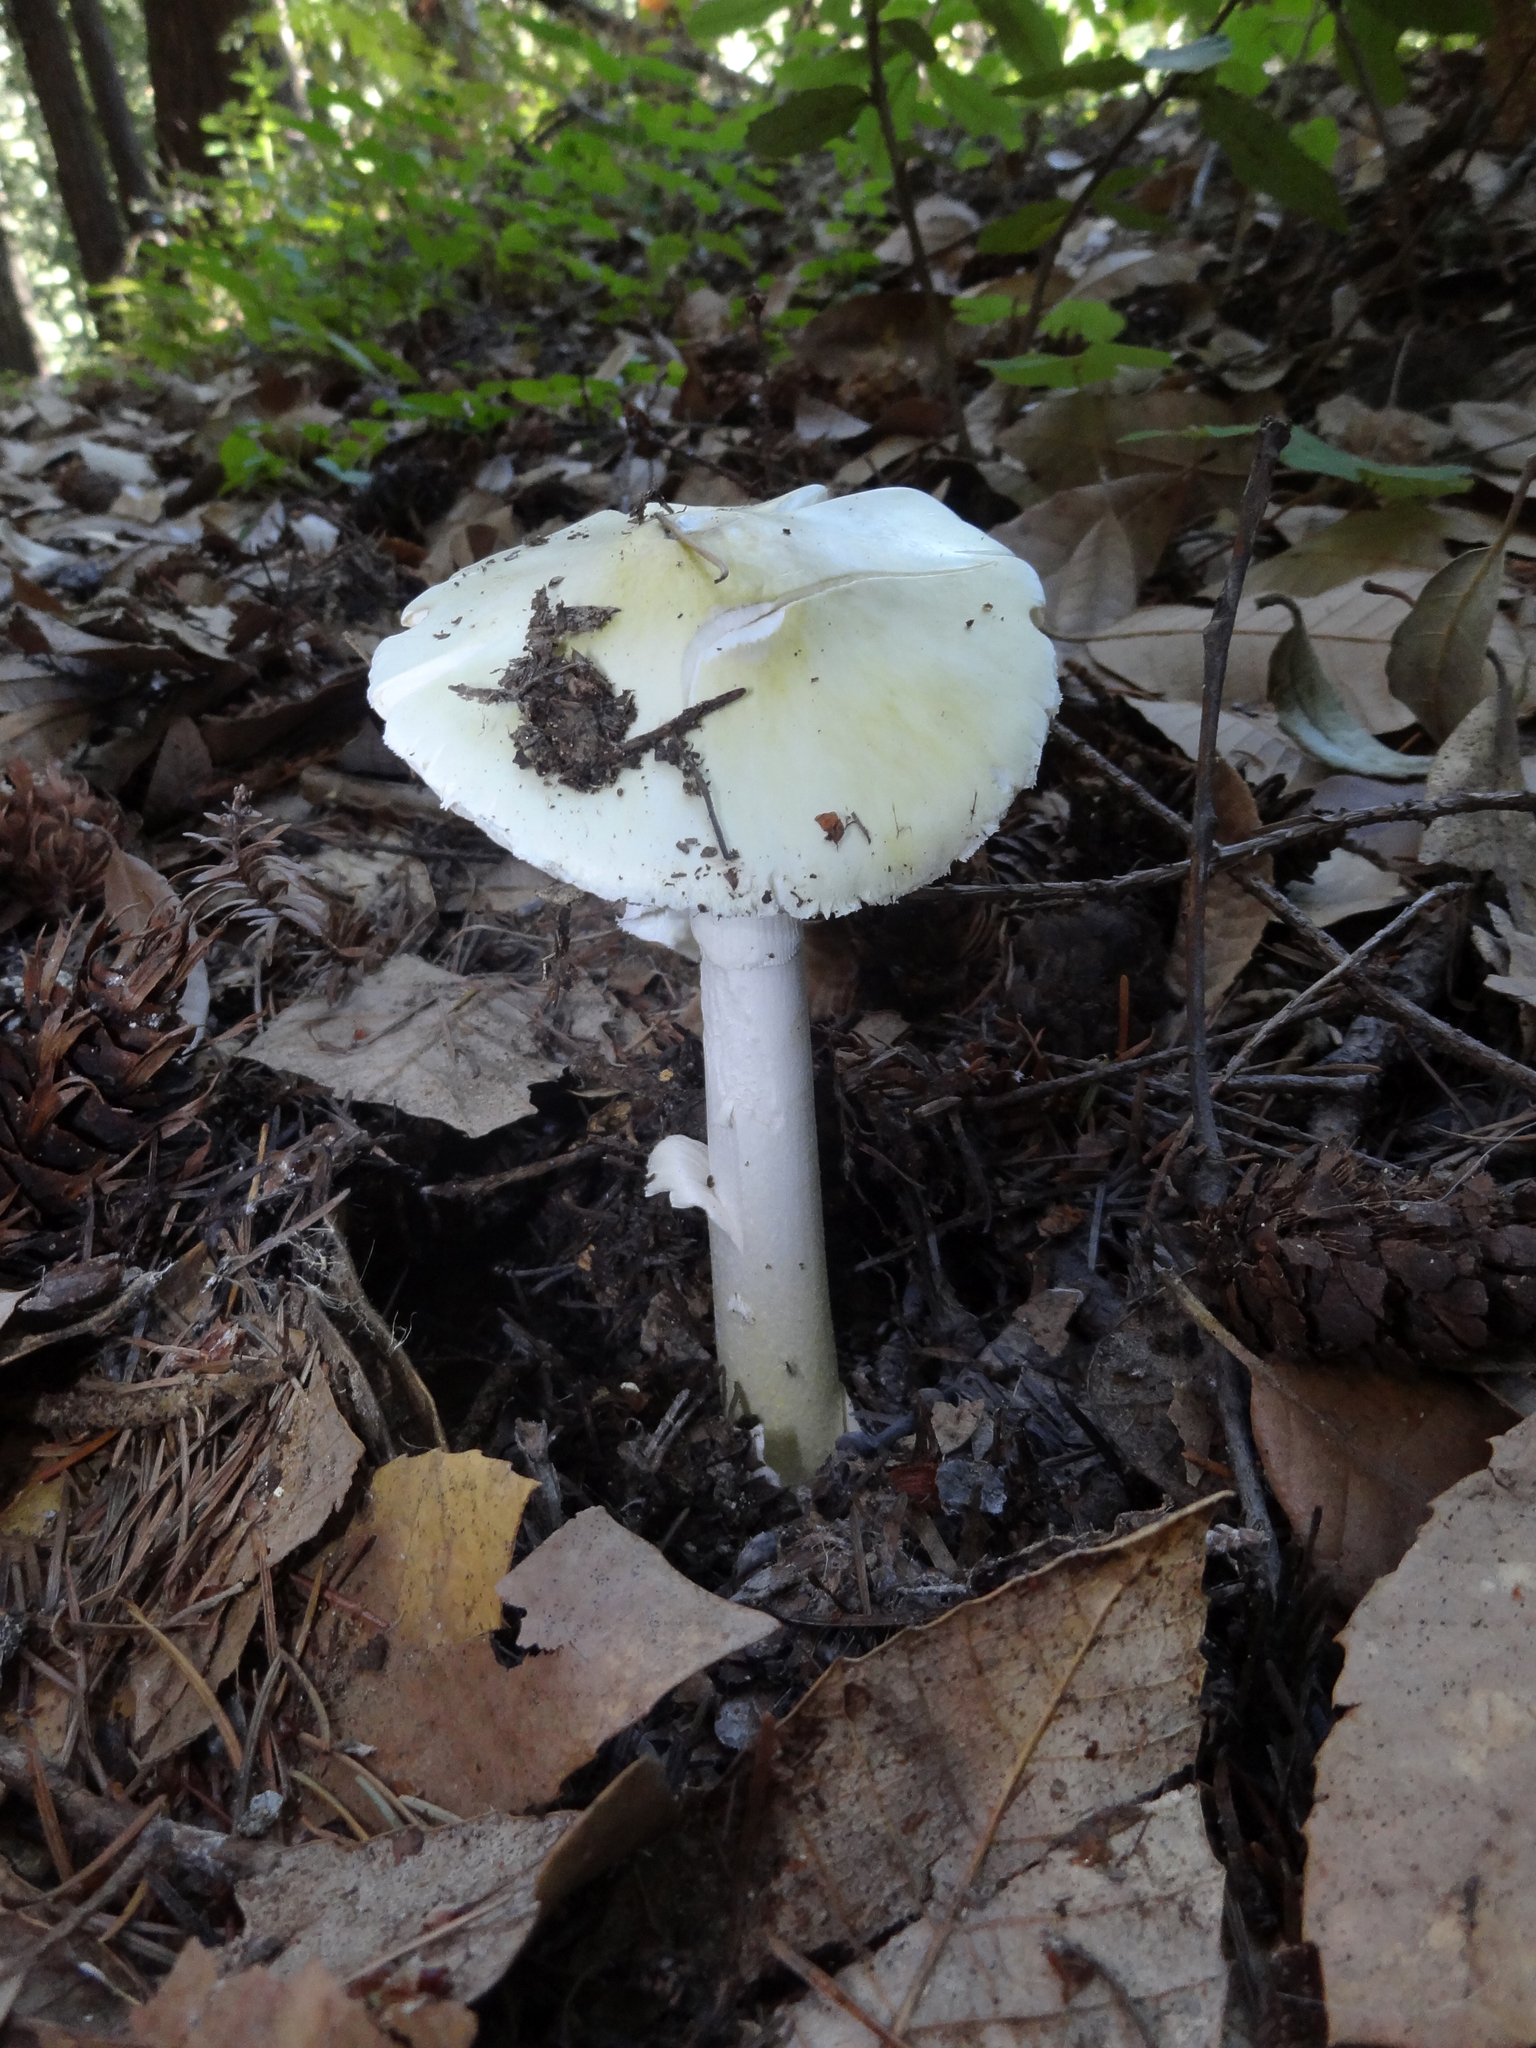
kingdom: Fungi
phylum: Basidiomycota
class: Agaricomycetes
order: Agaricales
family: Amanitaceae
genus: Amanita
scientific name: Amanita phalloides
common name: Death cap
